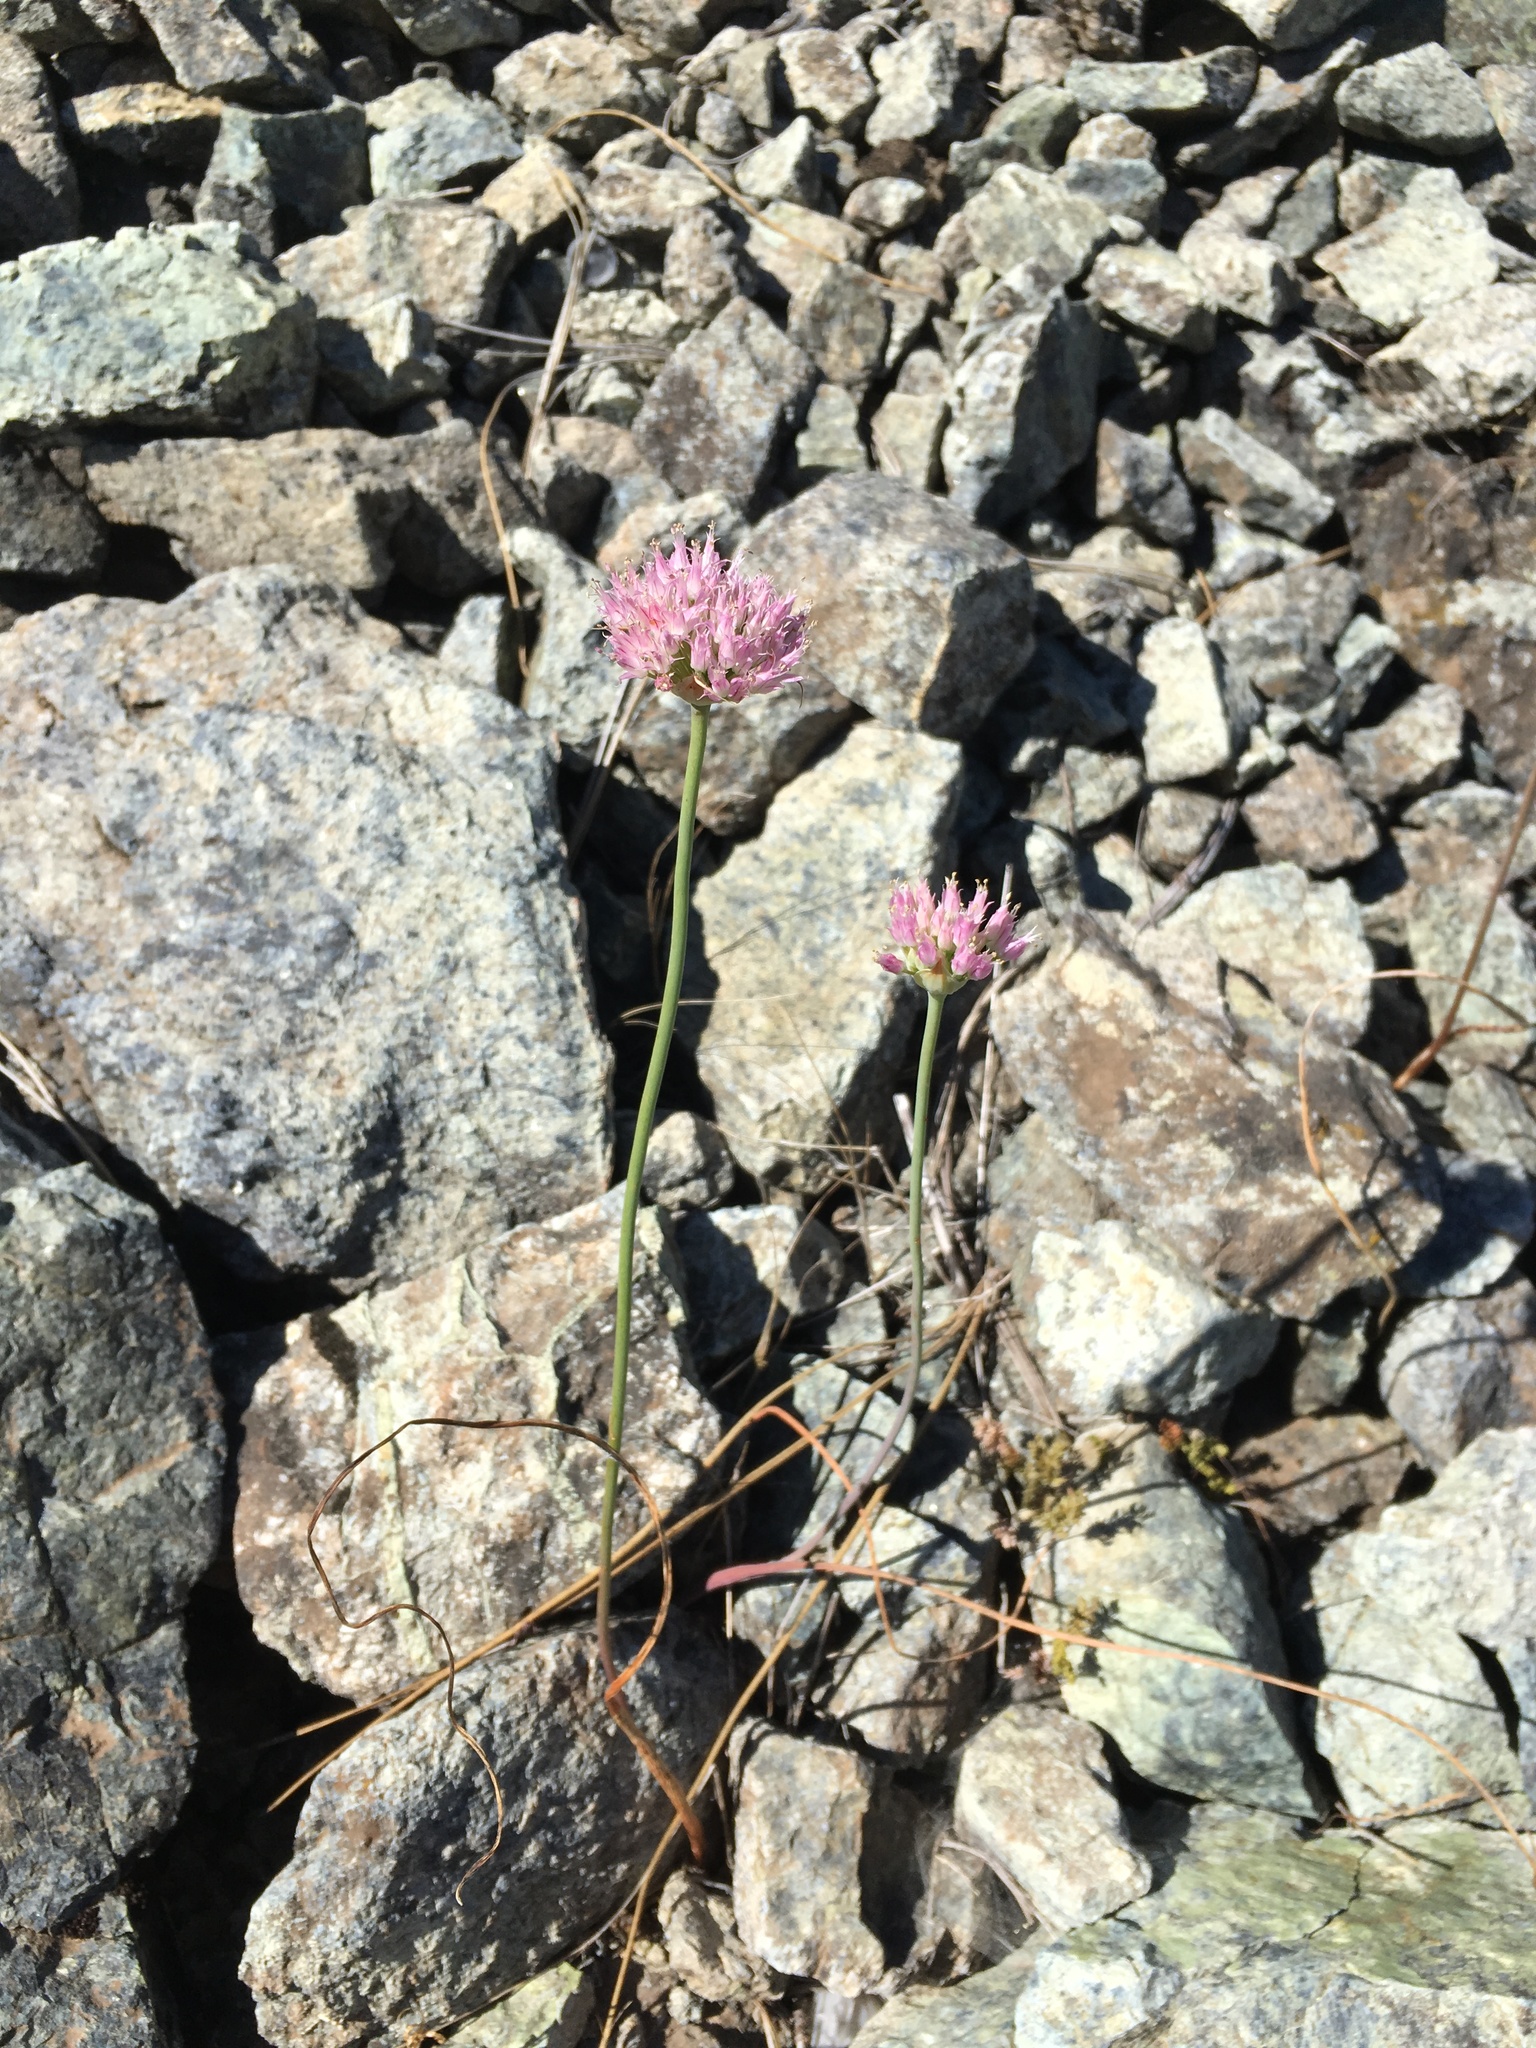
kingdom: Plantae
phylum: Tracheophyta
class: Liliopsida
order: Asparagales
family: Amaryllidaceae
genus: Allium
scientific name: Allium sanbornii
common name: Sanborn's onion
